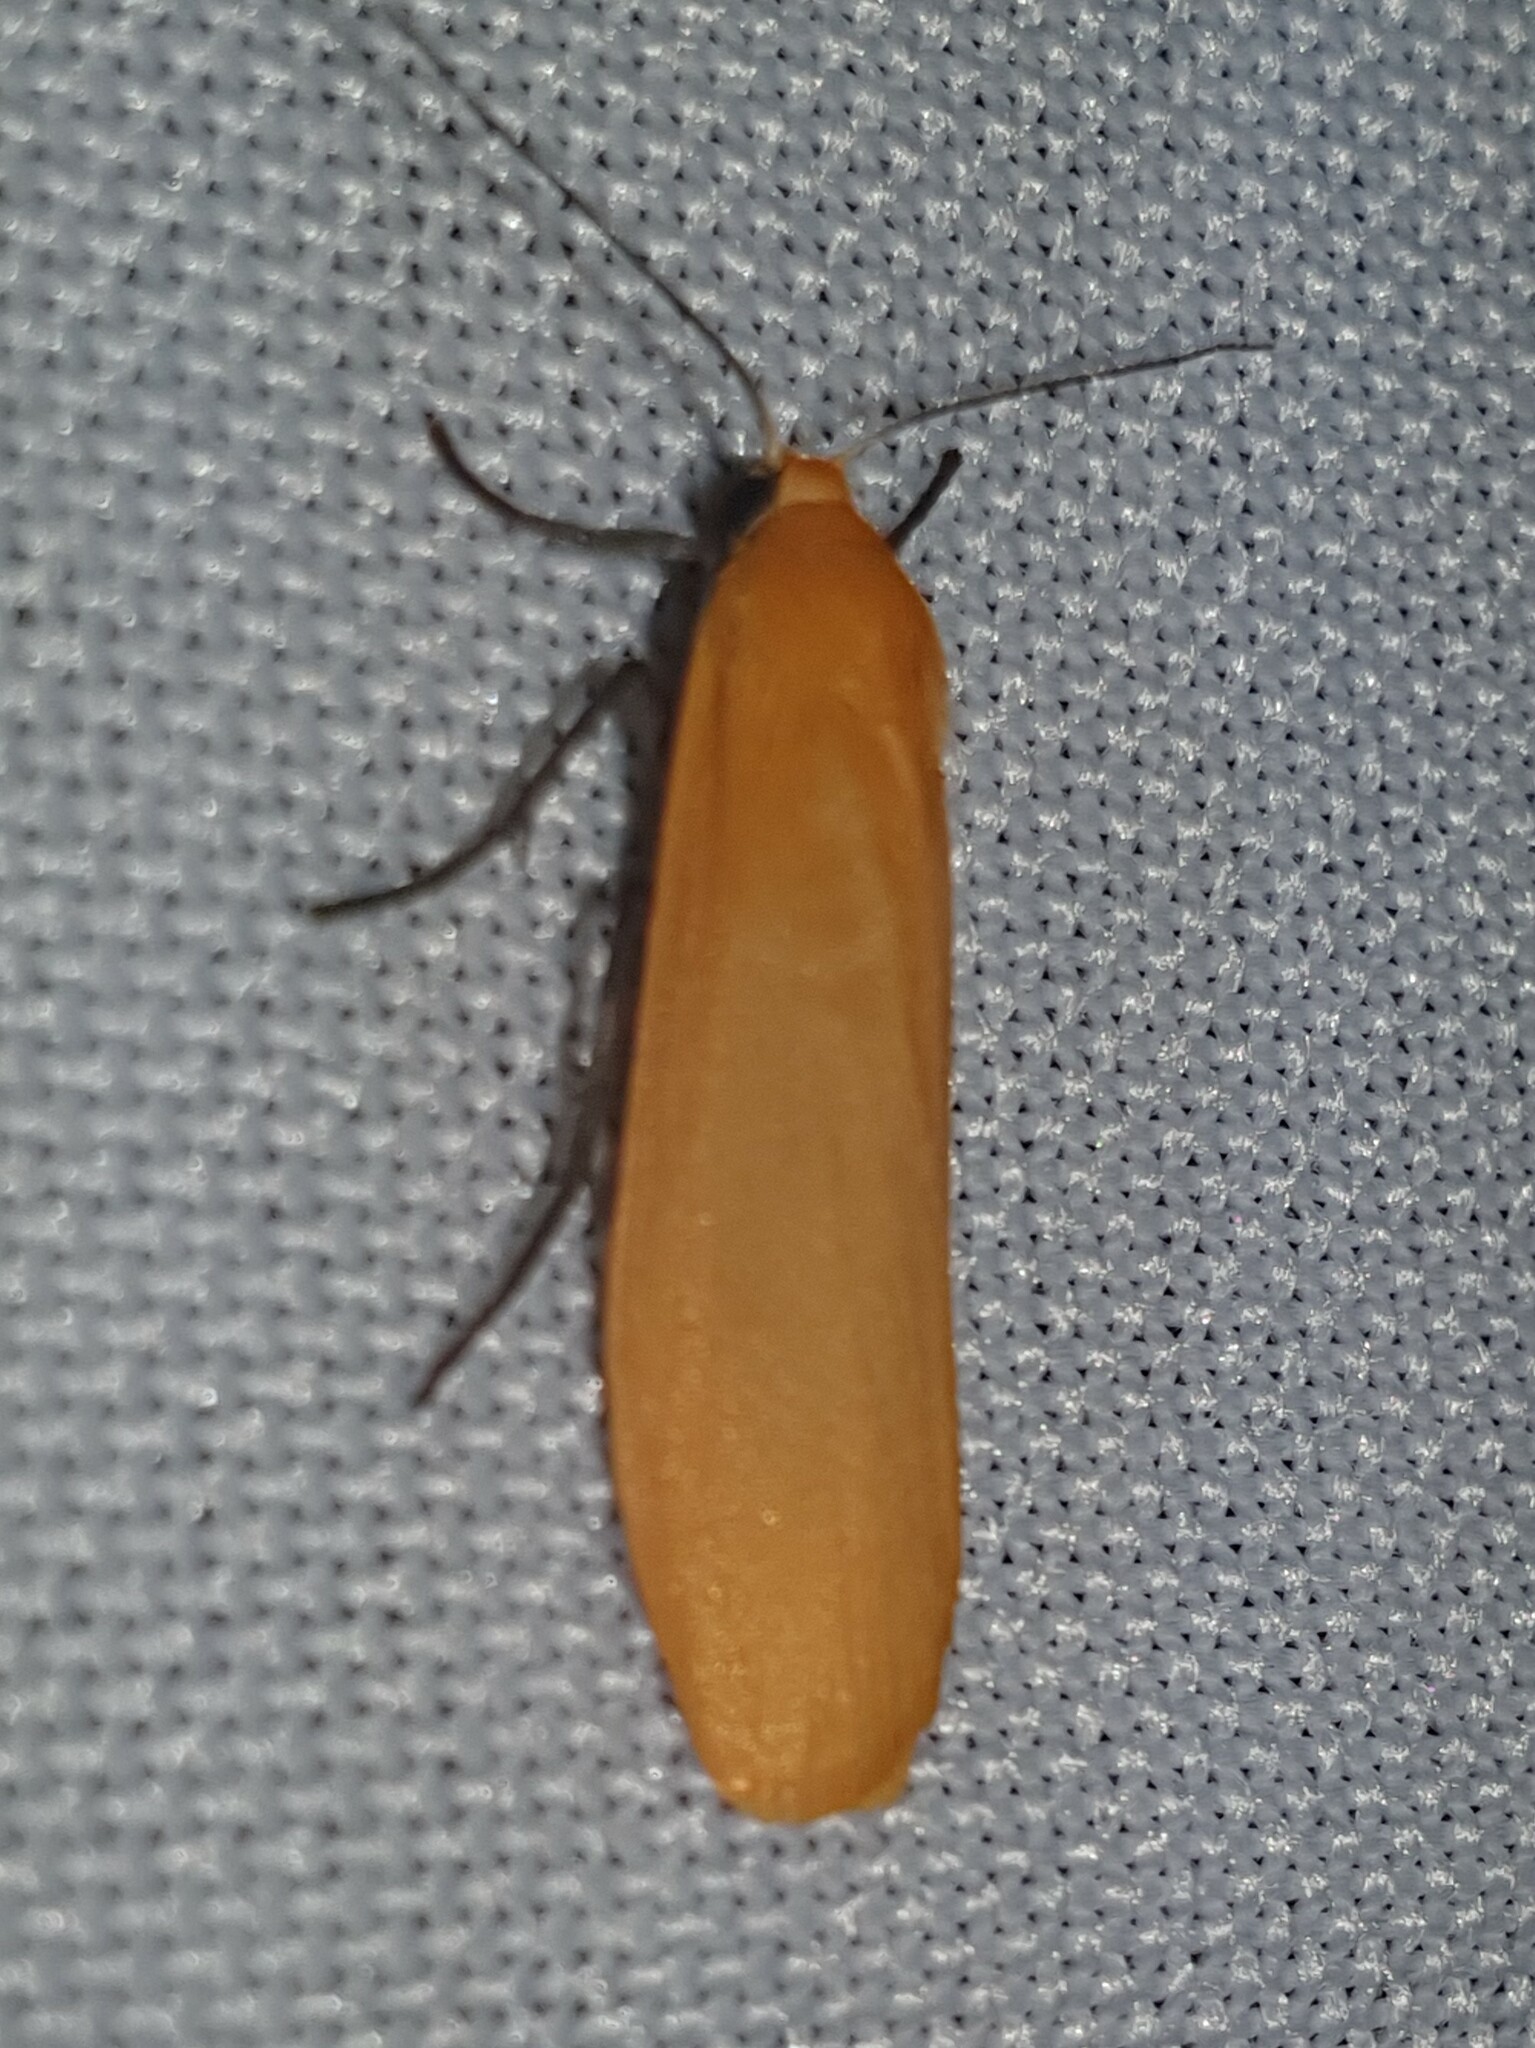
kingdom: Animalia
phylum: Arthropoda
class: Insecta
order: Lepidoptera
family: Erebidae
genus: Wittia
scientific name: Wittia sororcula
